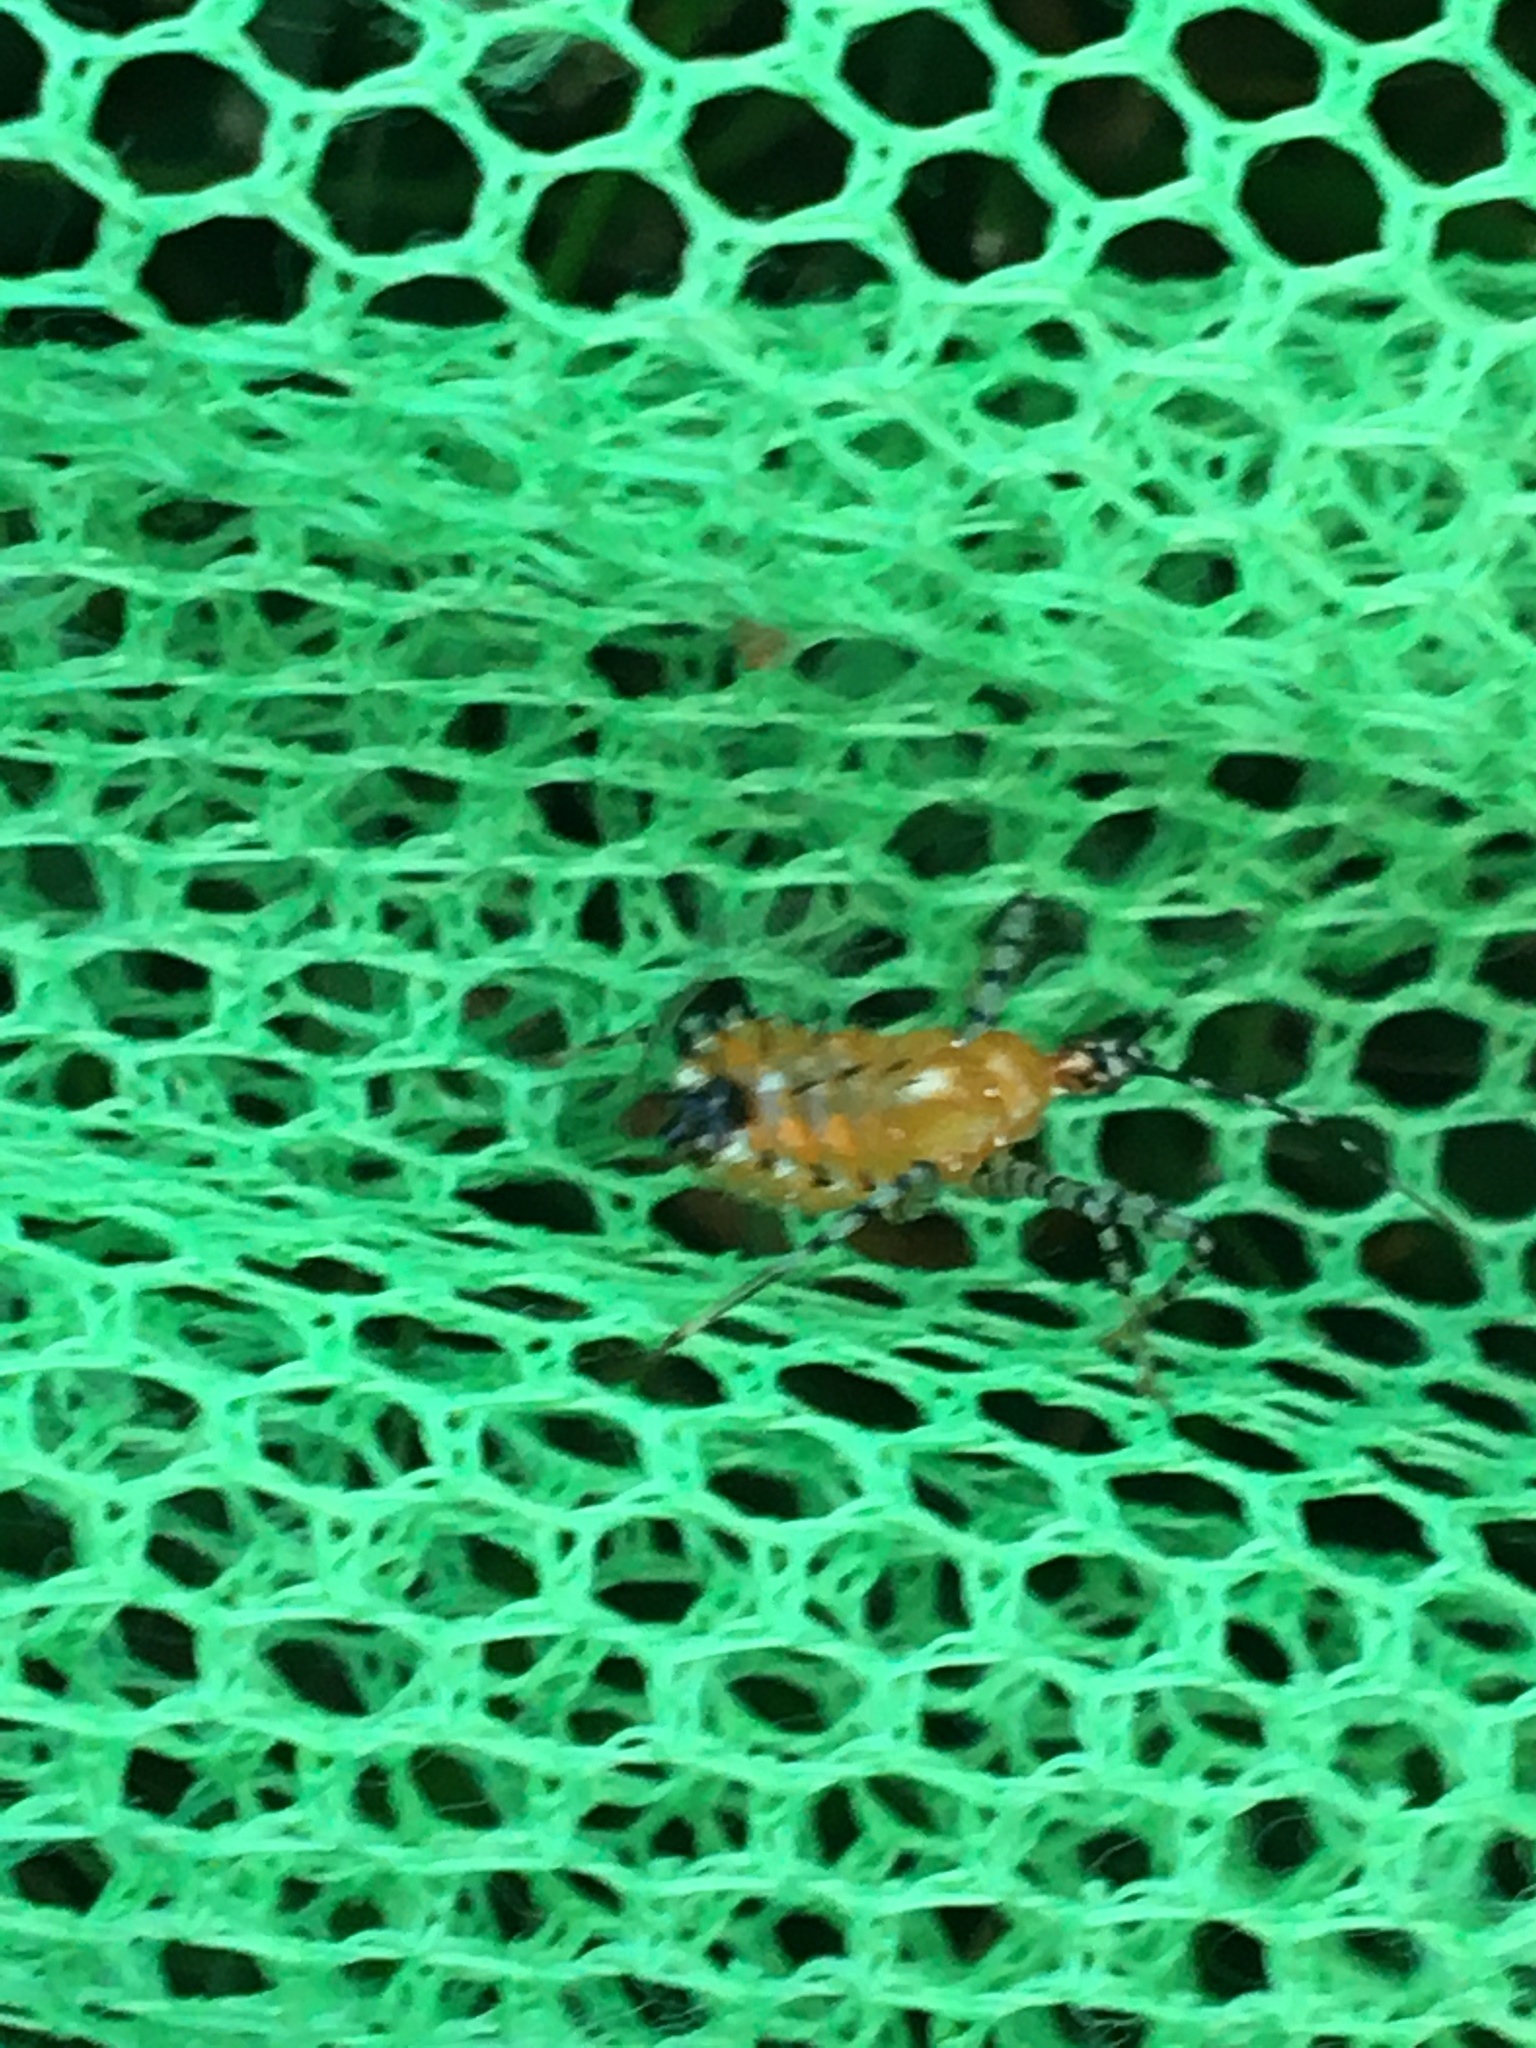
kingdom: Animalia
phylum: Arthropoda
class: Insecta
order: Hemiptera
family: Reduviidae
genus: Pselliopus
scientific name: Pselliopus cinctus
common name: Ringed assassin bug
